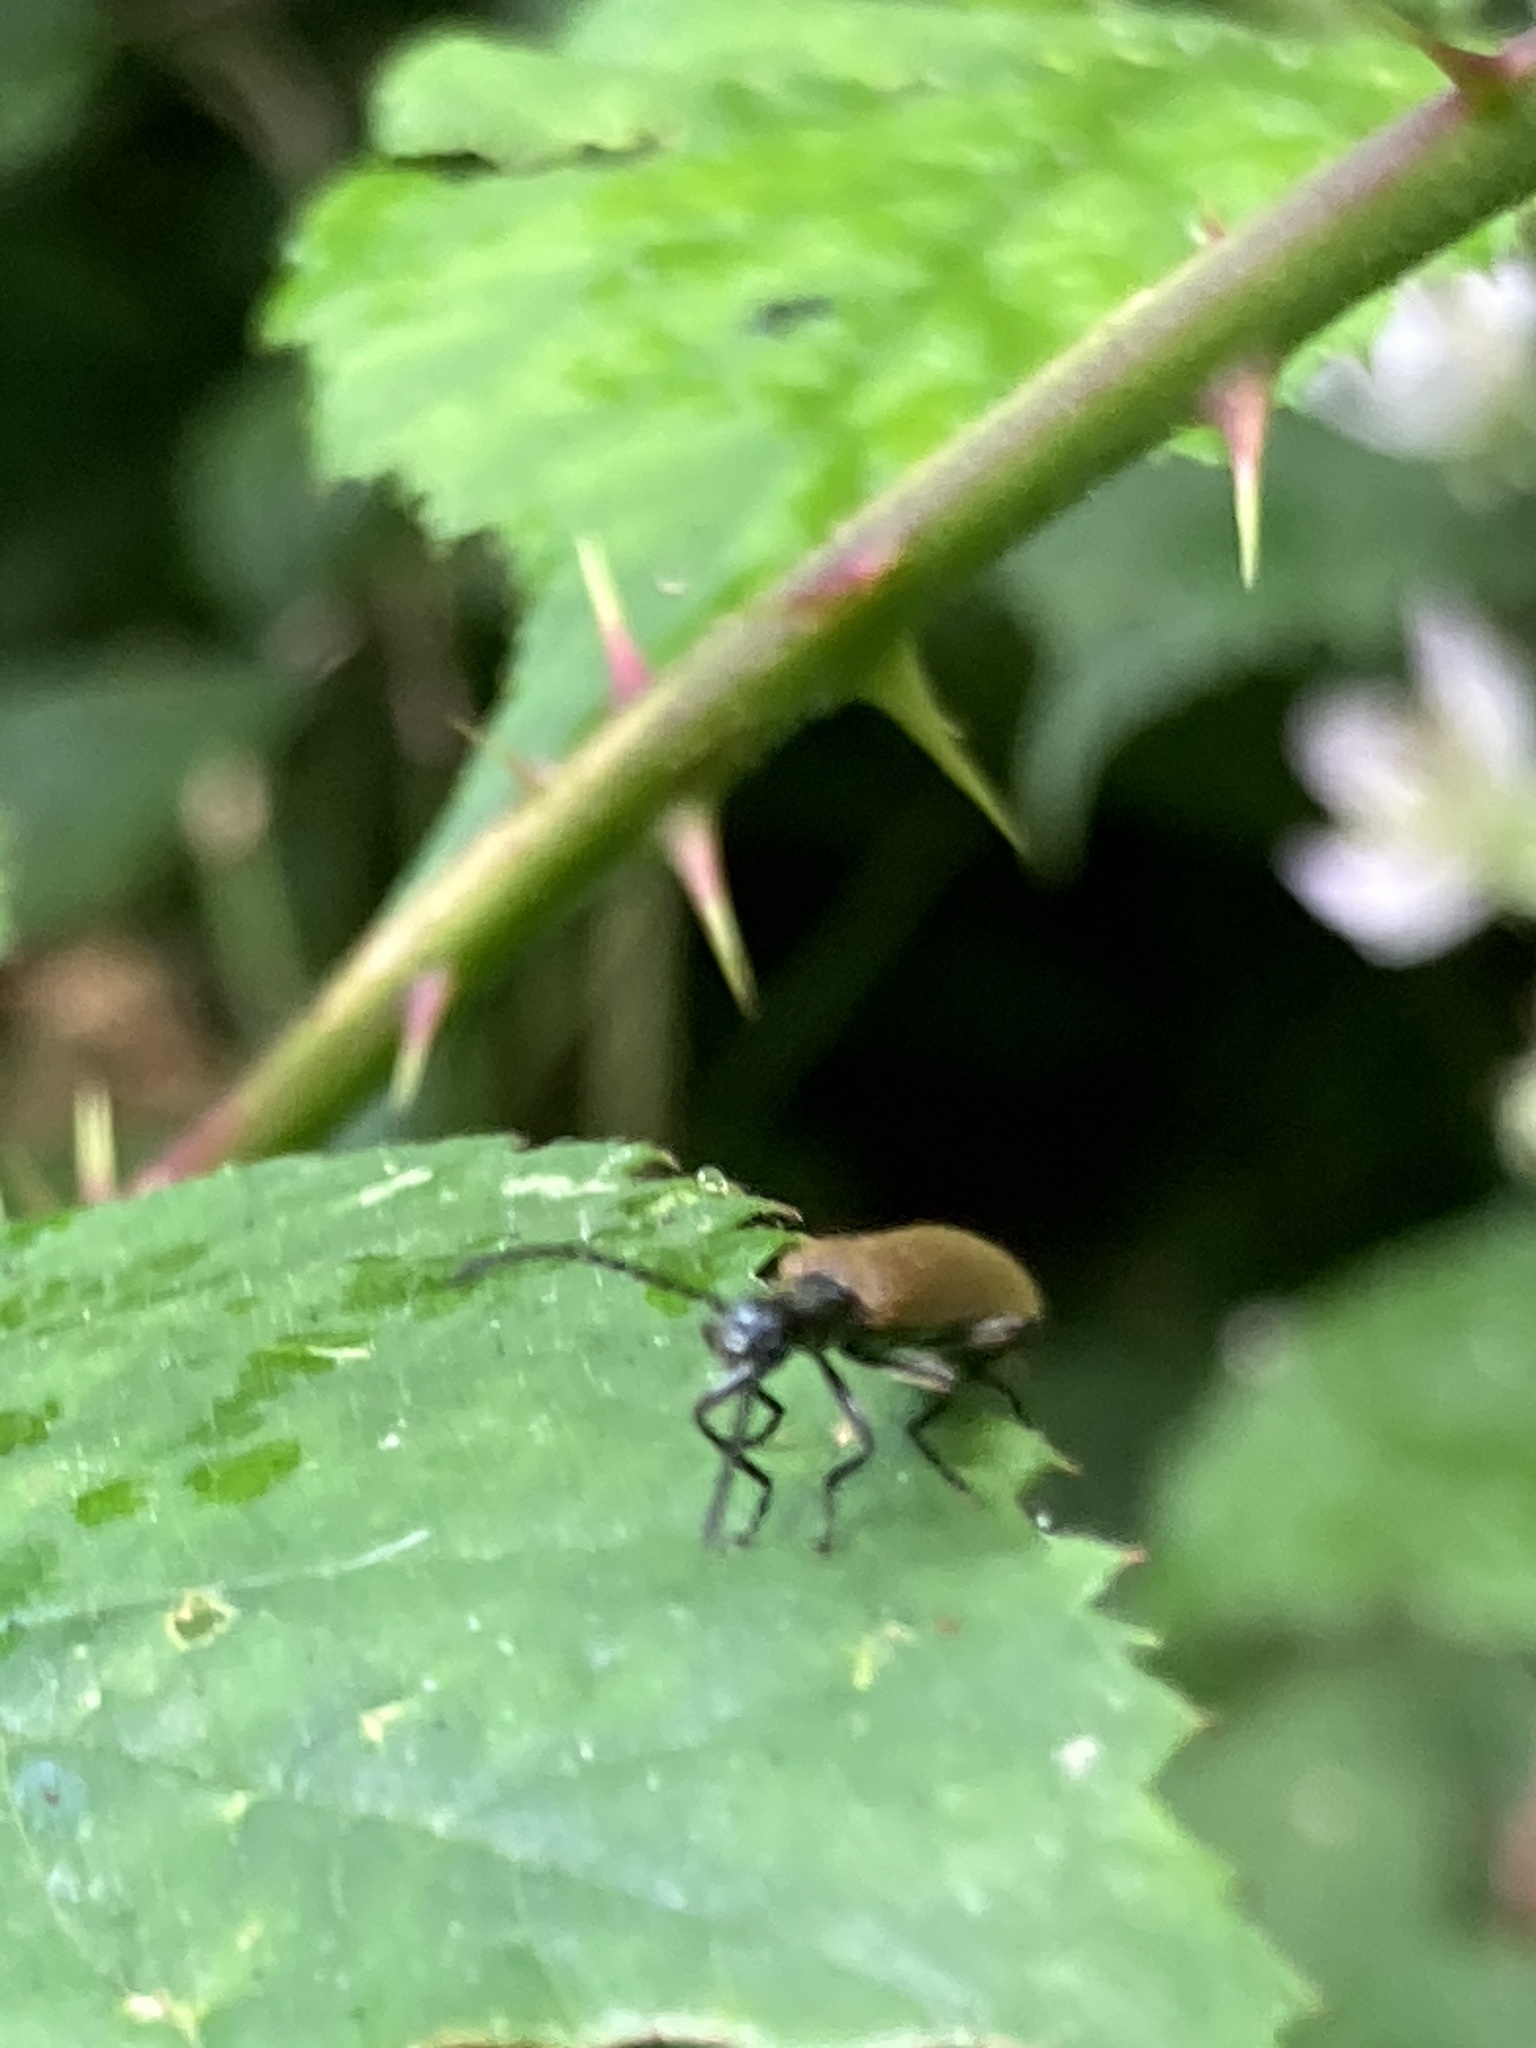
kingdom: Animalia
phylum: Arthropoda
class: Insecta
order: Coleoptera
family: Tenebrionidae
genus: Lagria
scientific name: Lagria hirta
